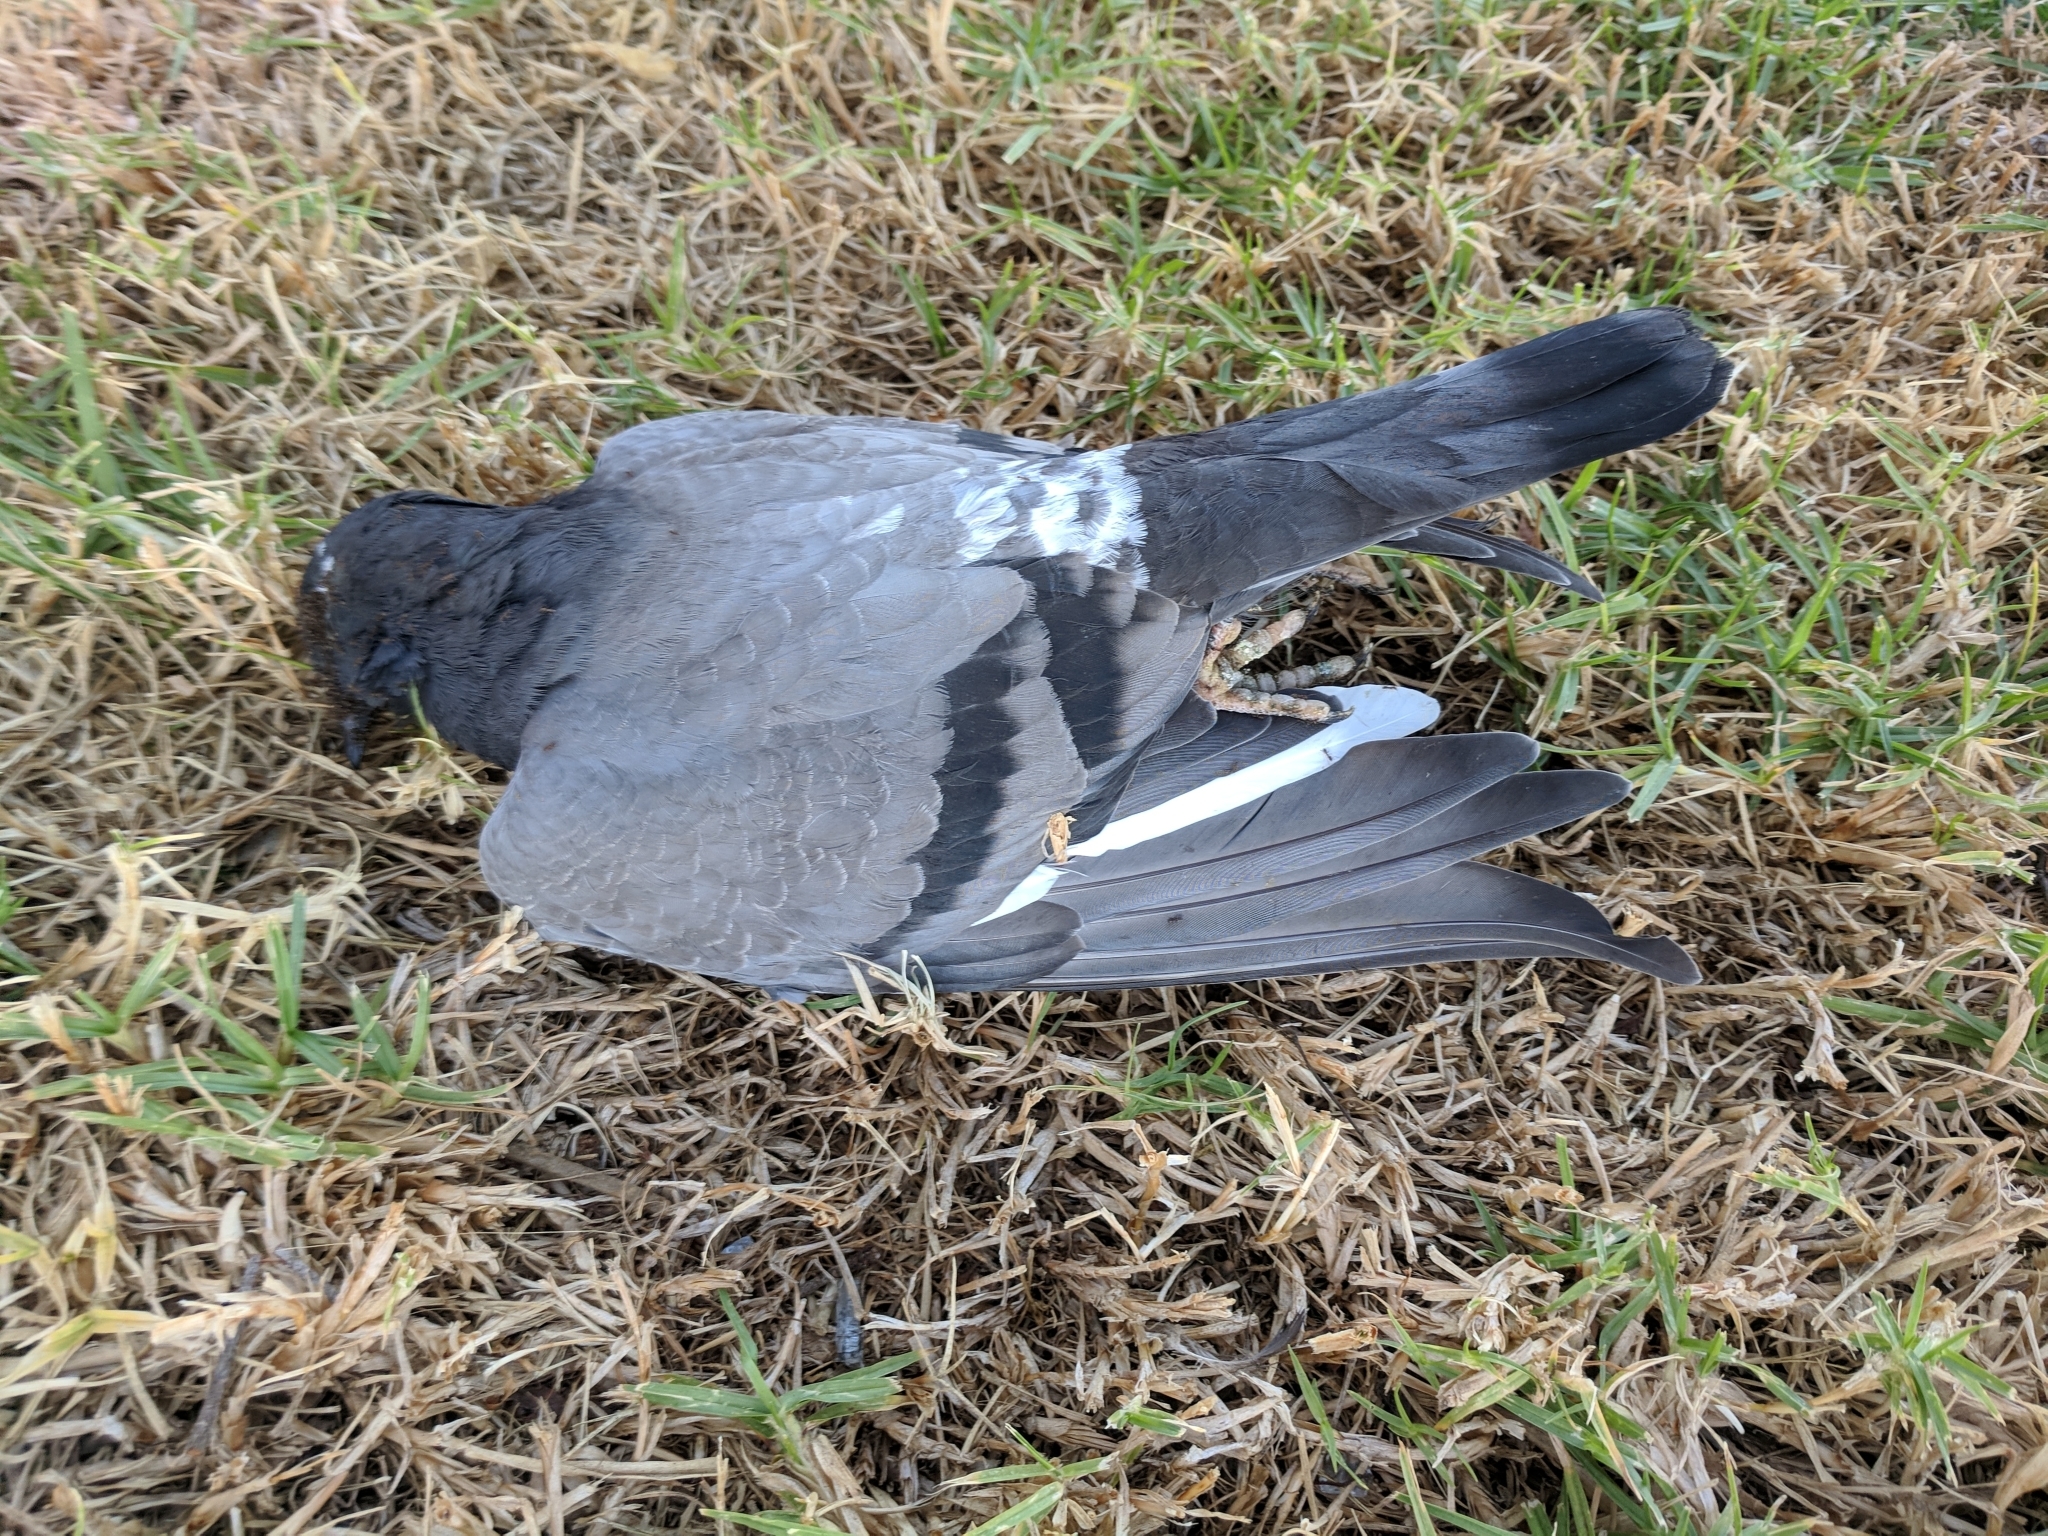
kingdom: Animalia
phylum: Chordata
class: Aves
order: Columbiformes
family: Columbidae
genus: Columba
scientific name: Columba livia
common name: Rock pigeon
